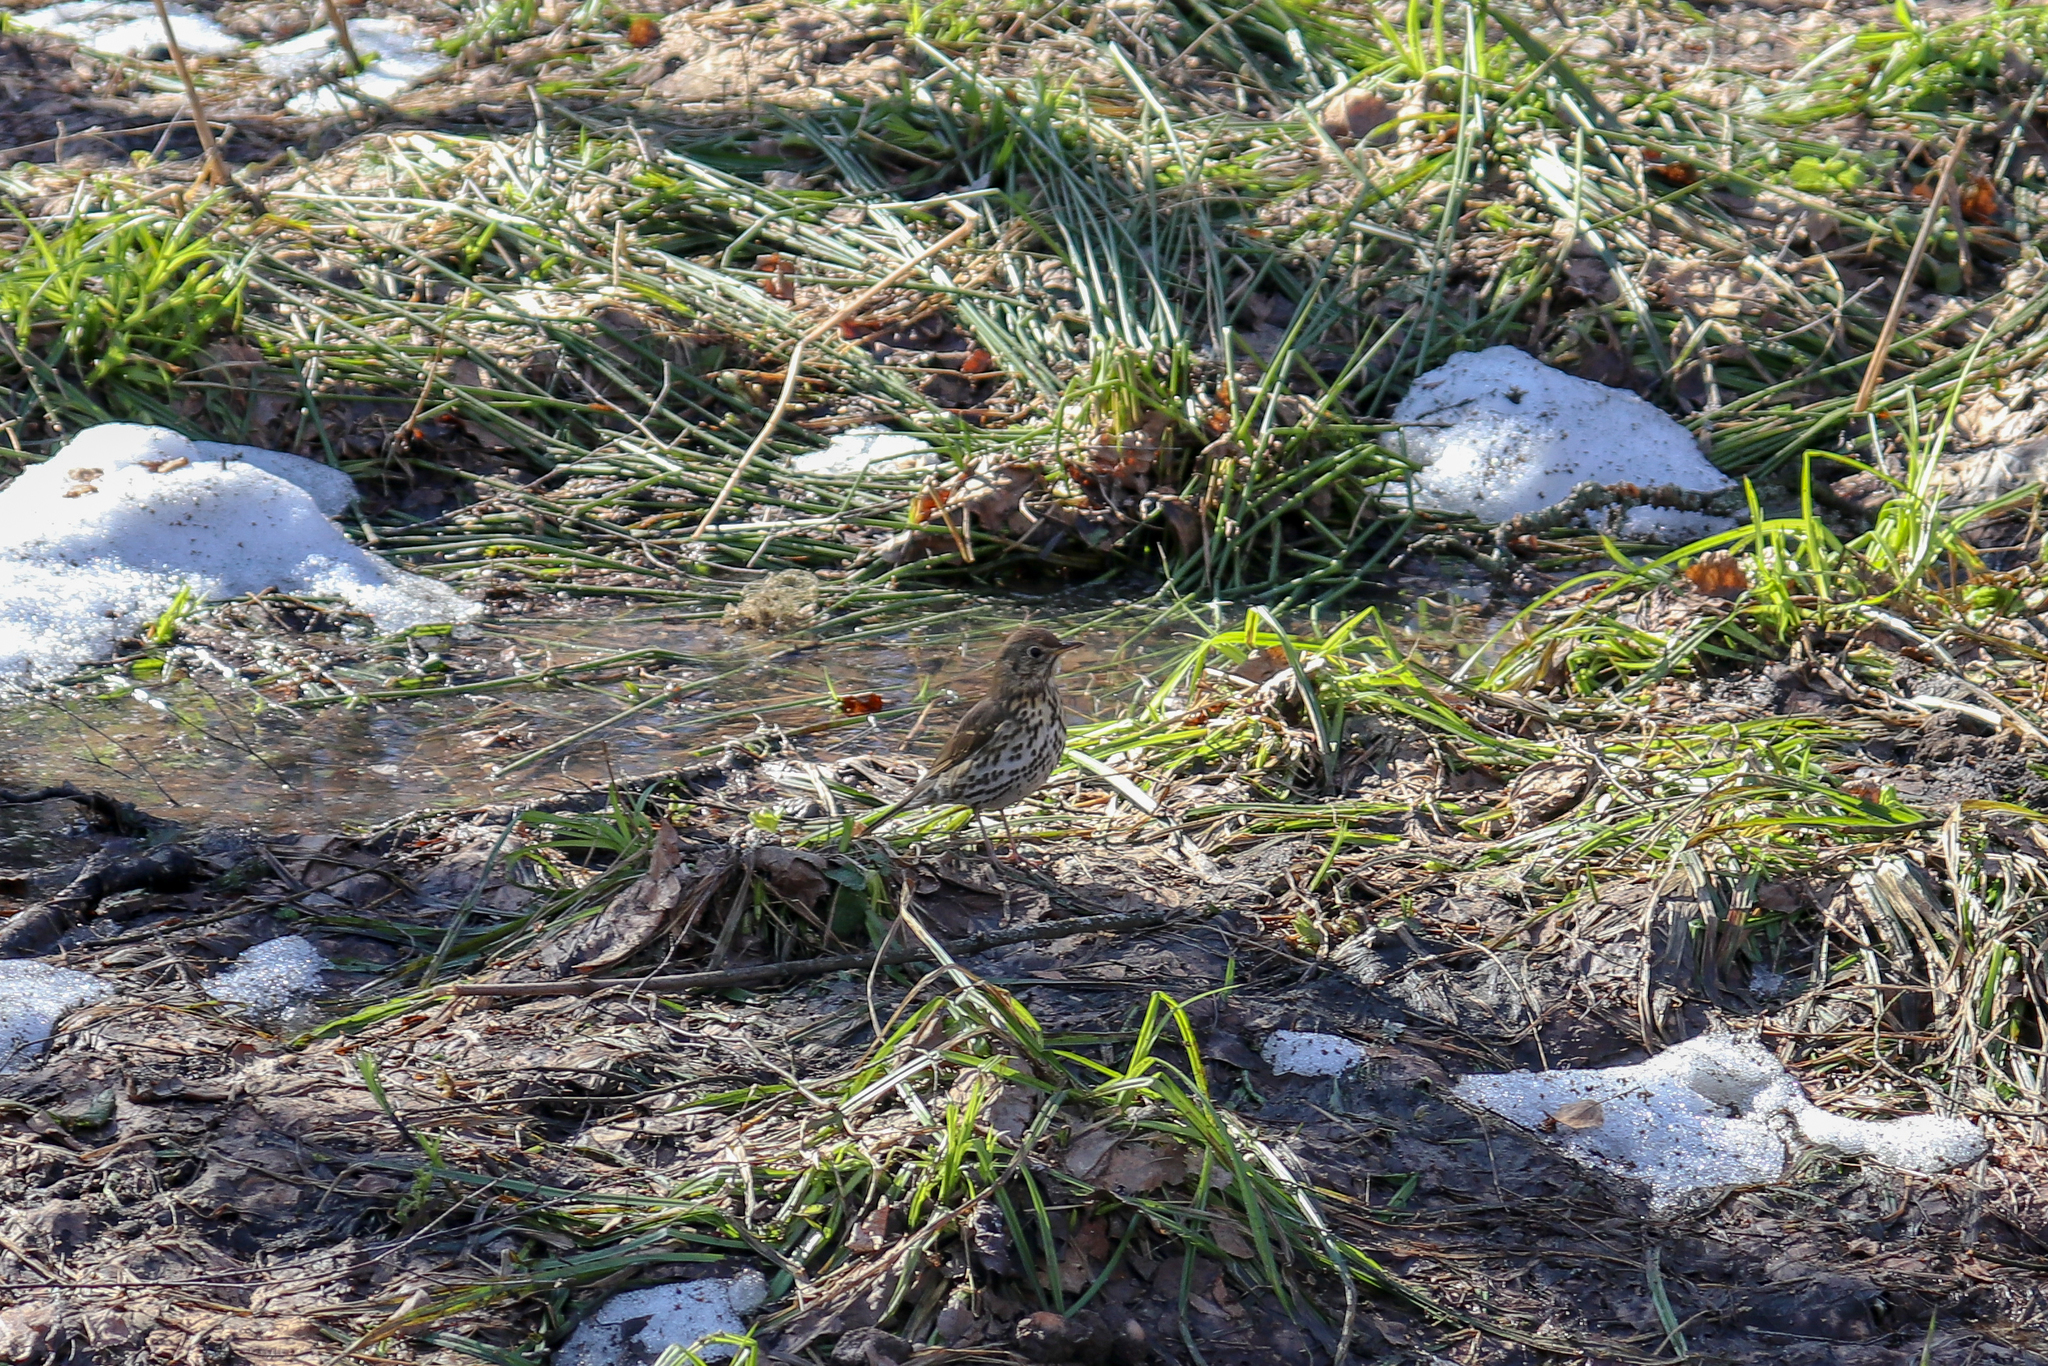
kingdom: Animalia
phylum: Chordata
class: Aves
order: Passeriformes
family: Turdidae
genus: Turdus
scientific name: Turdus philomelos
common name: Song thrush
